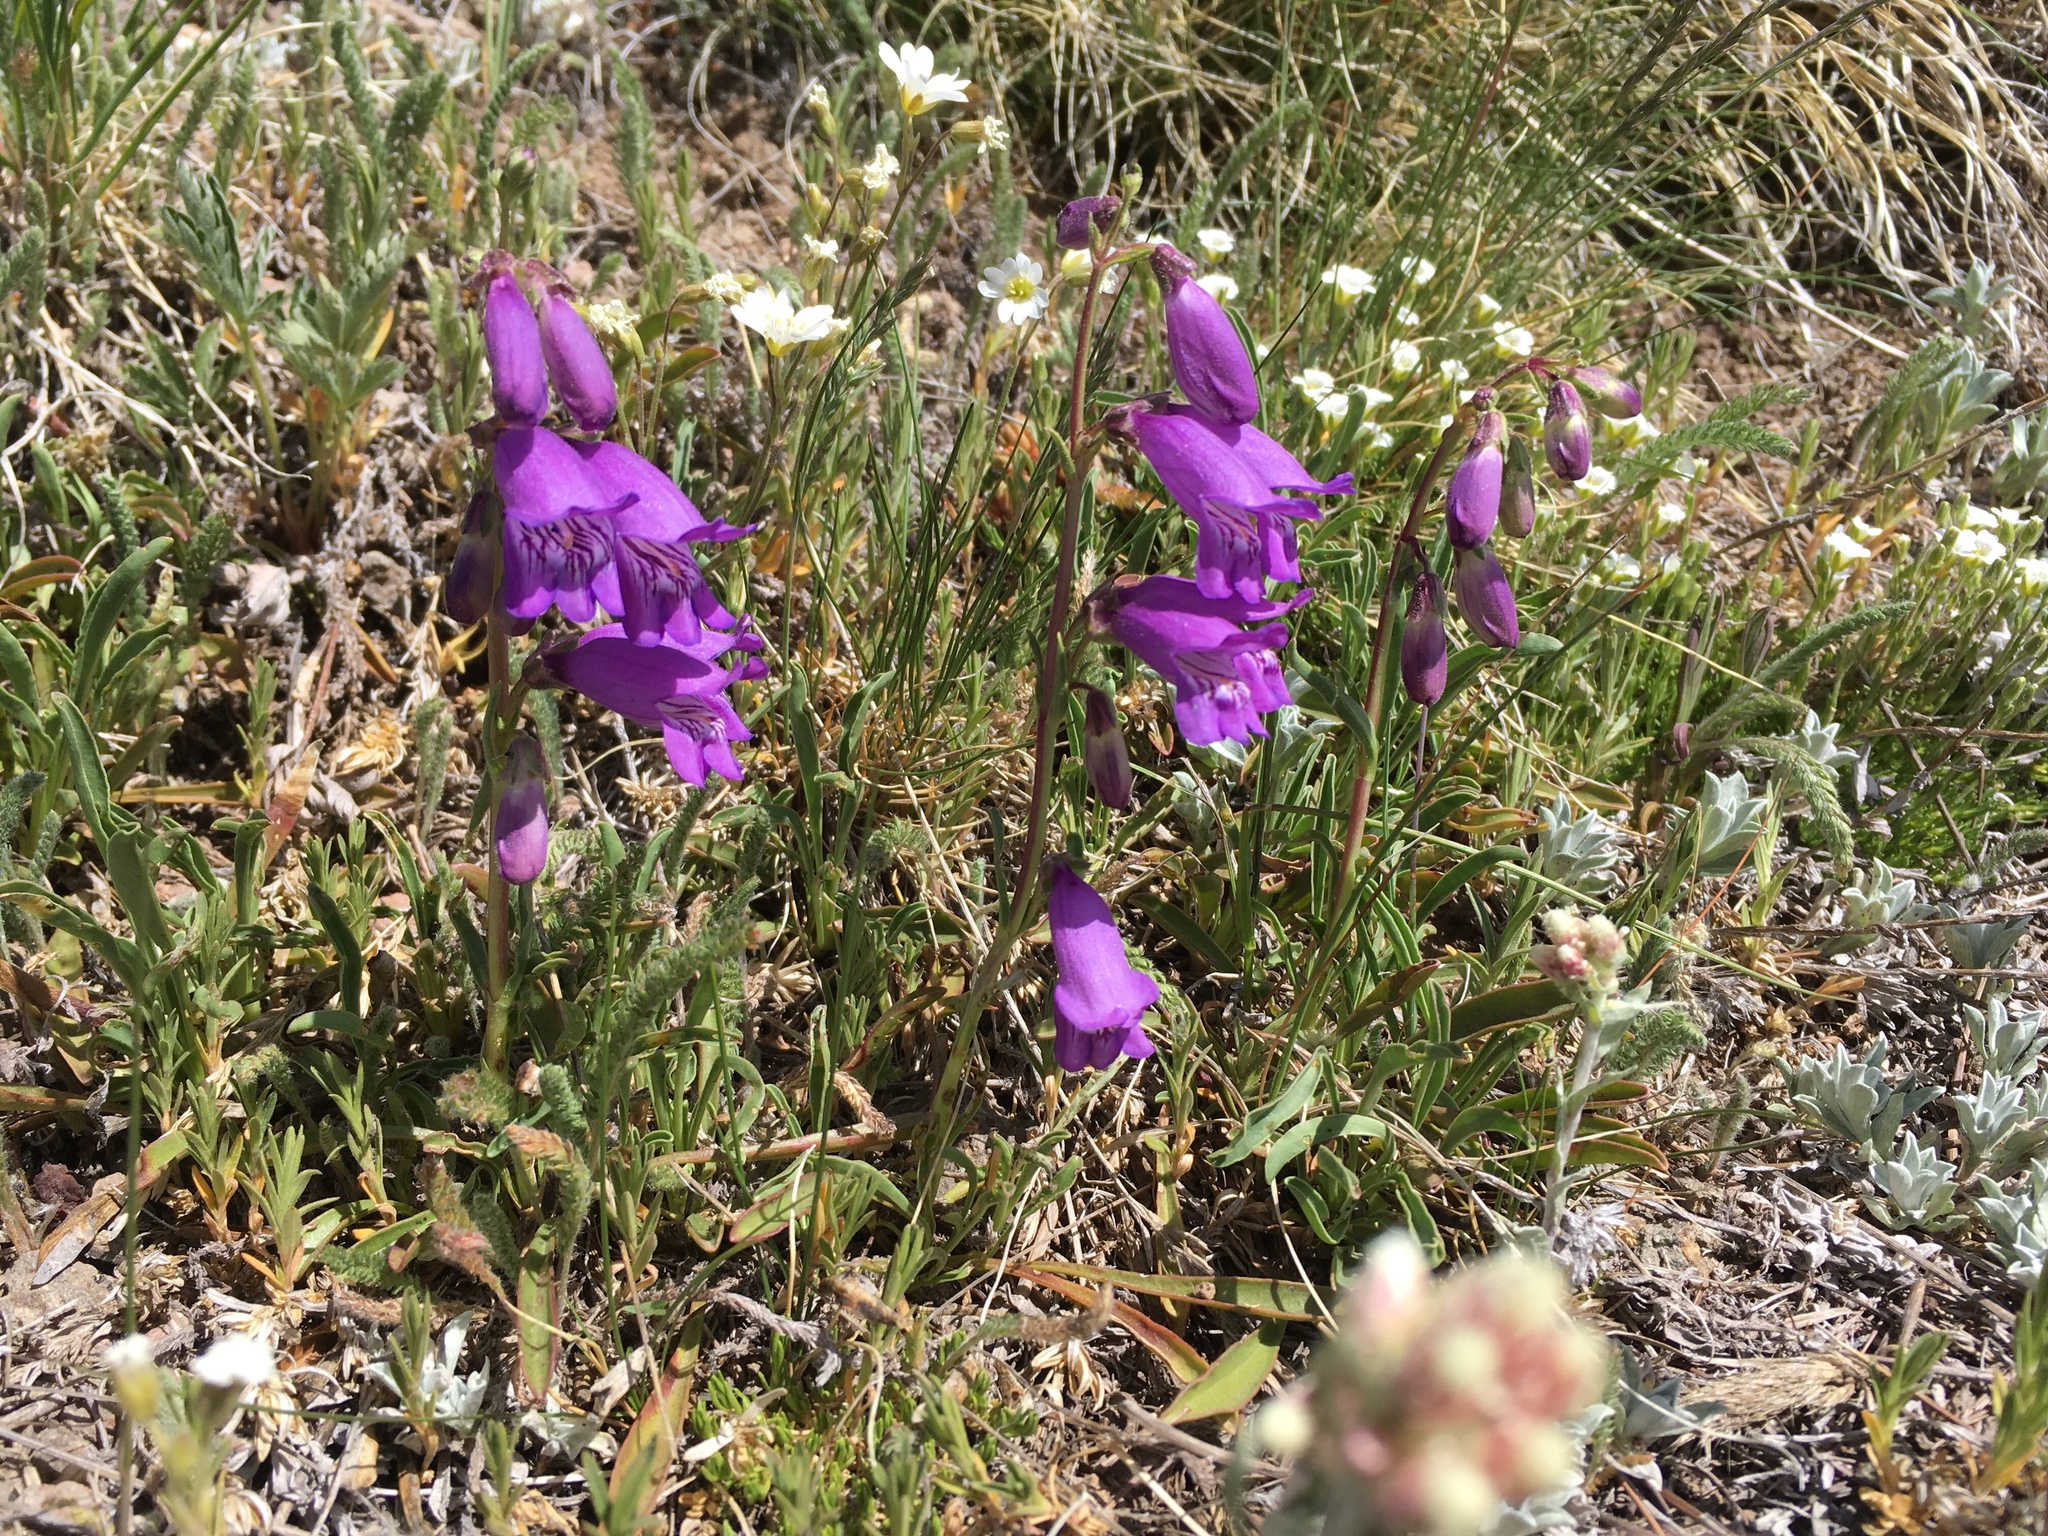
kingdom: Plantae
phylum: Tracheophyta
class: Magnoliopsida
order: Lamiales
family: Plantaginaceae
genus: Penstemon
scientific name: Penstemon hallii
